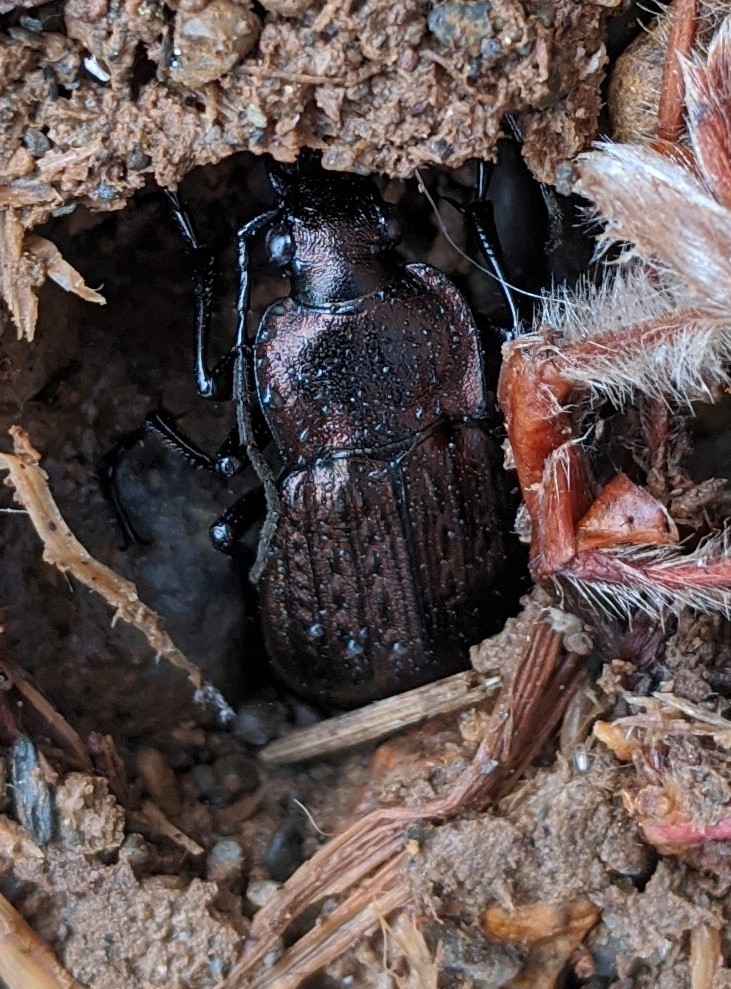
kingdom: Animalia
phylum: Arthropoda
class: Insecta
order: Coleoptera
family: Carabidae
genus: Carabus
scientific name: Carabus granulatus
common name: Granulate ground beetle
